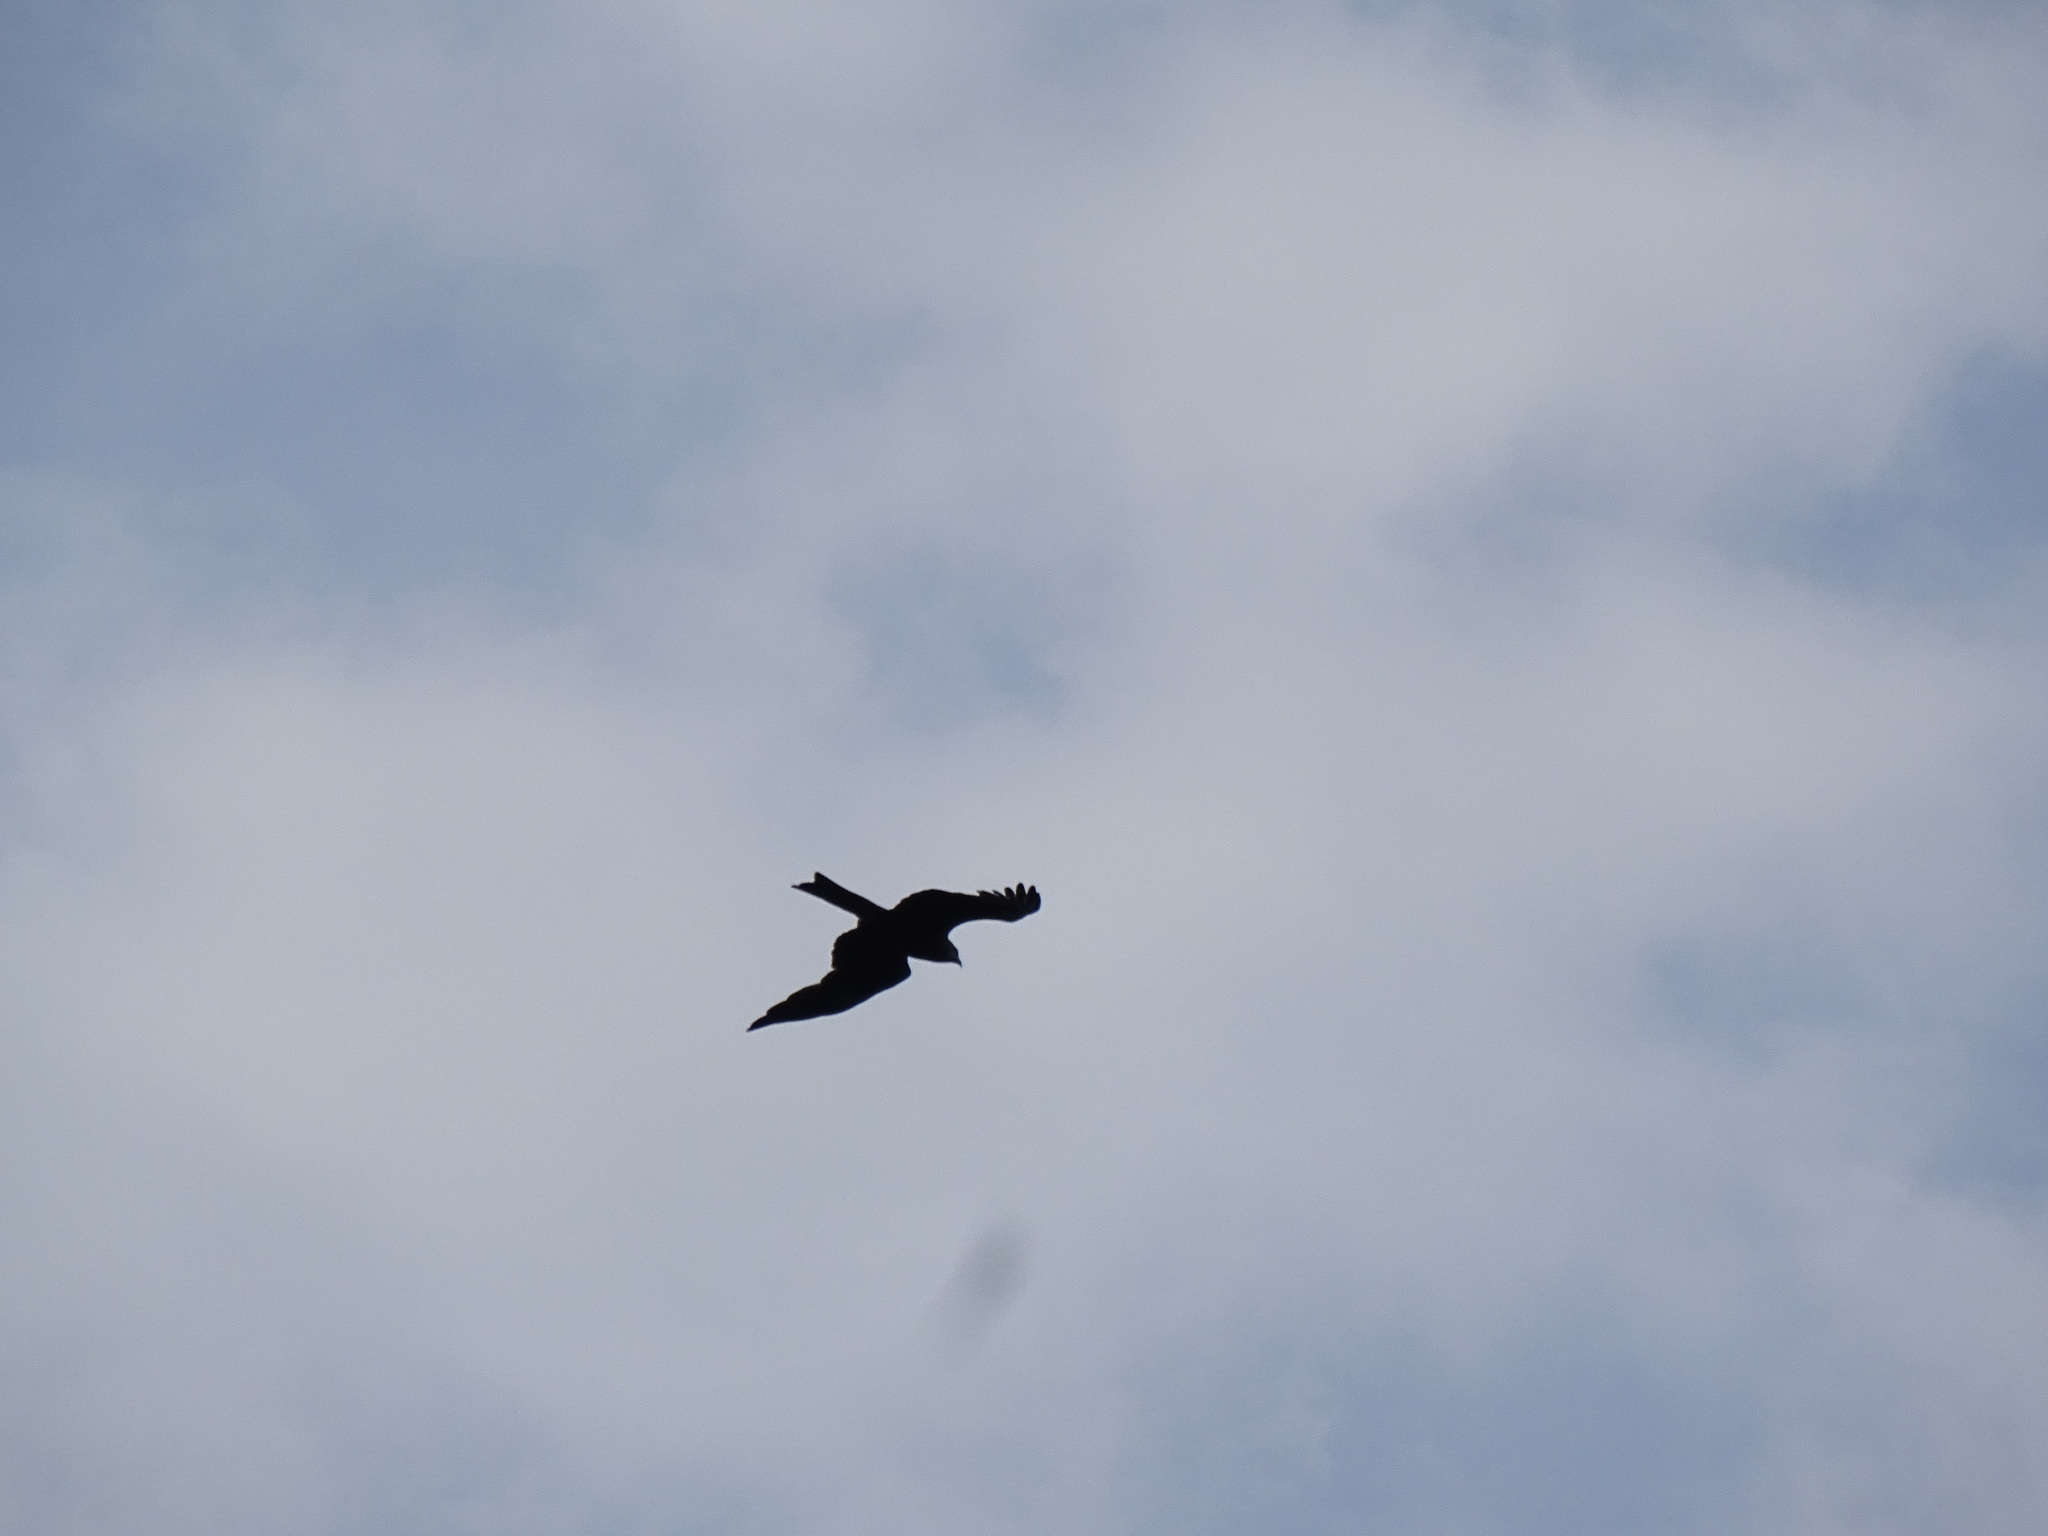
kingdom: Animalia
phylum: Chordata
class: Aves
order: Accipitriformes
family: Accipitridae
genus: Milvus
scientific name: Milvus migrans
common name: Black kite
